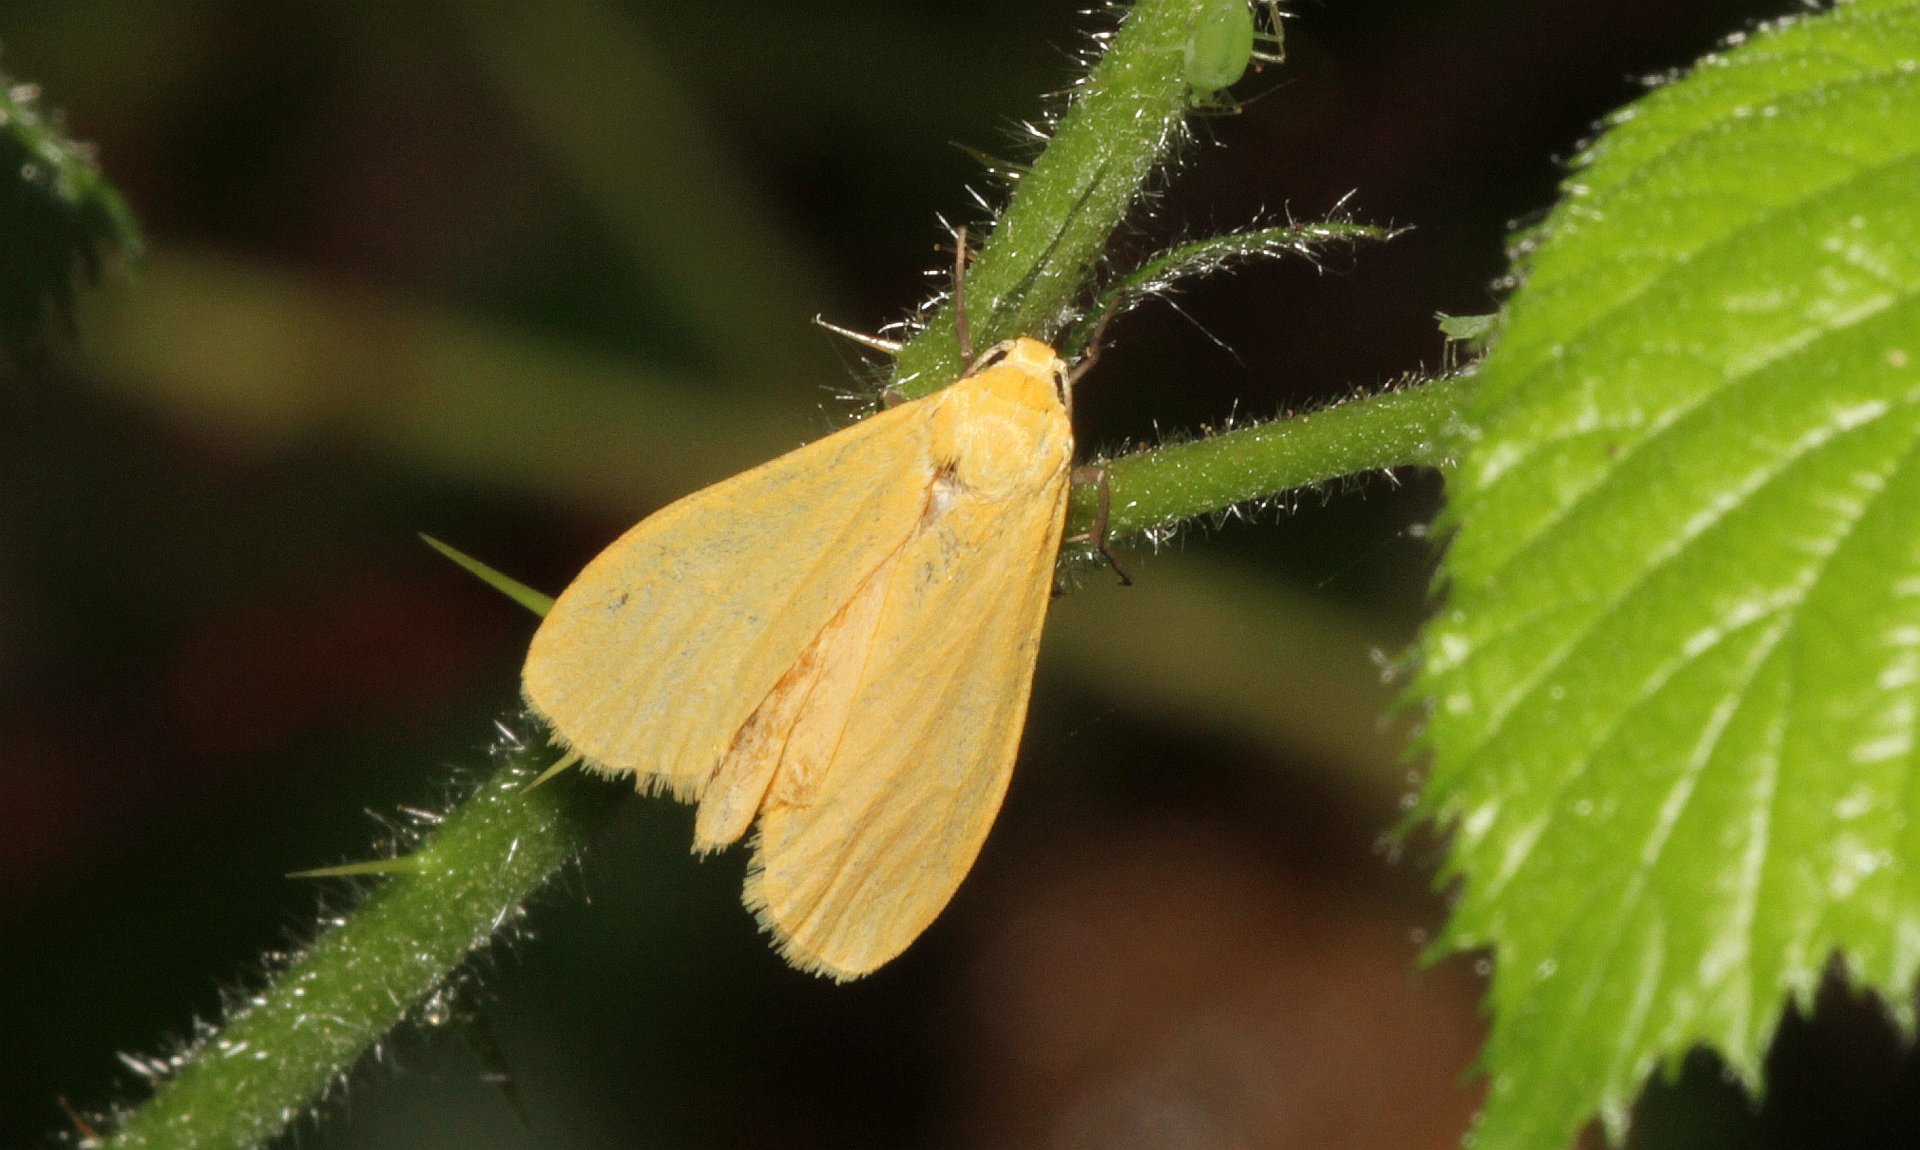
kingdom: Animalia
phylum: Arthropoda
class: Insecta
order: Lepidoptera
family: Erebidae
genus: Wittia
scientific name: Wittia sororcula
